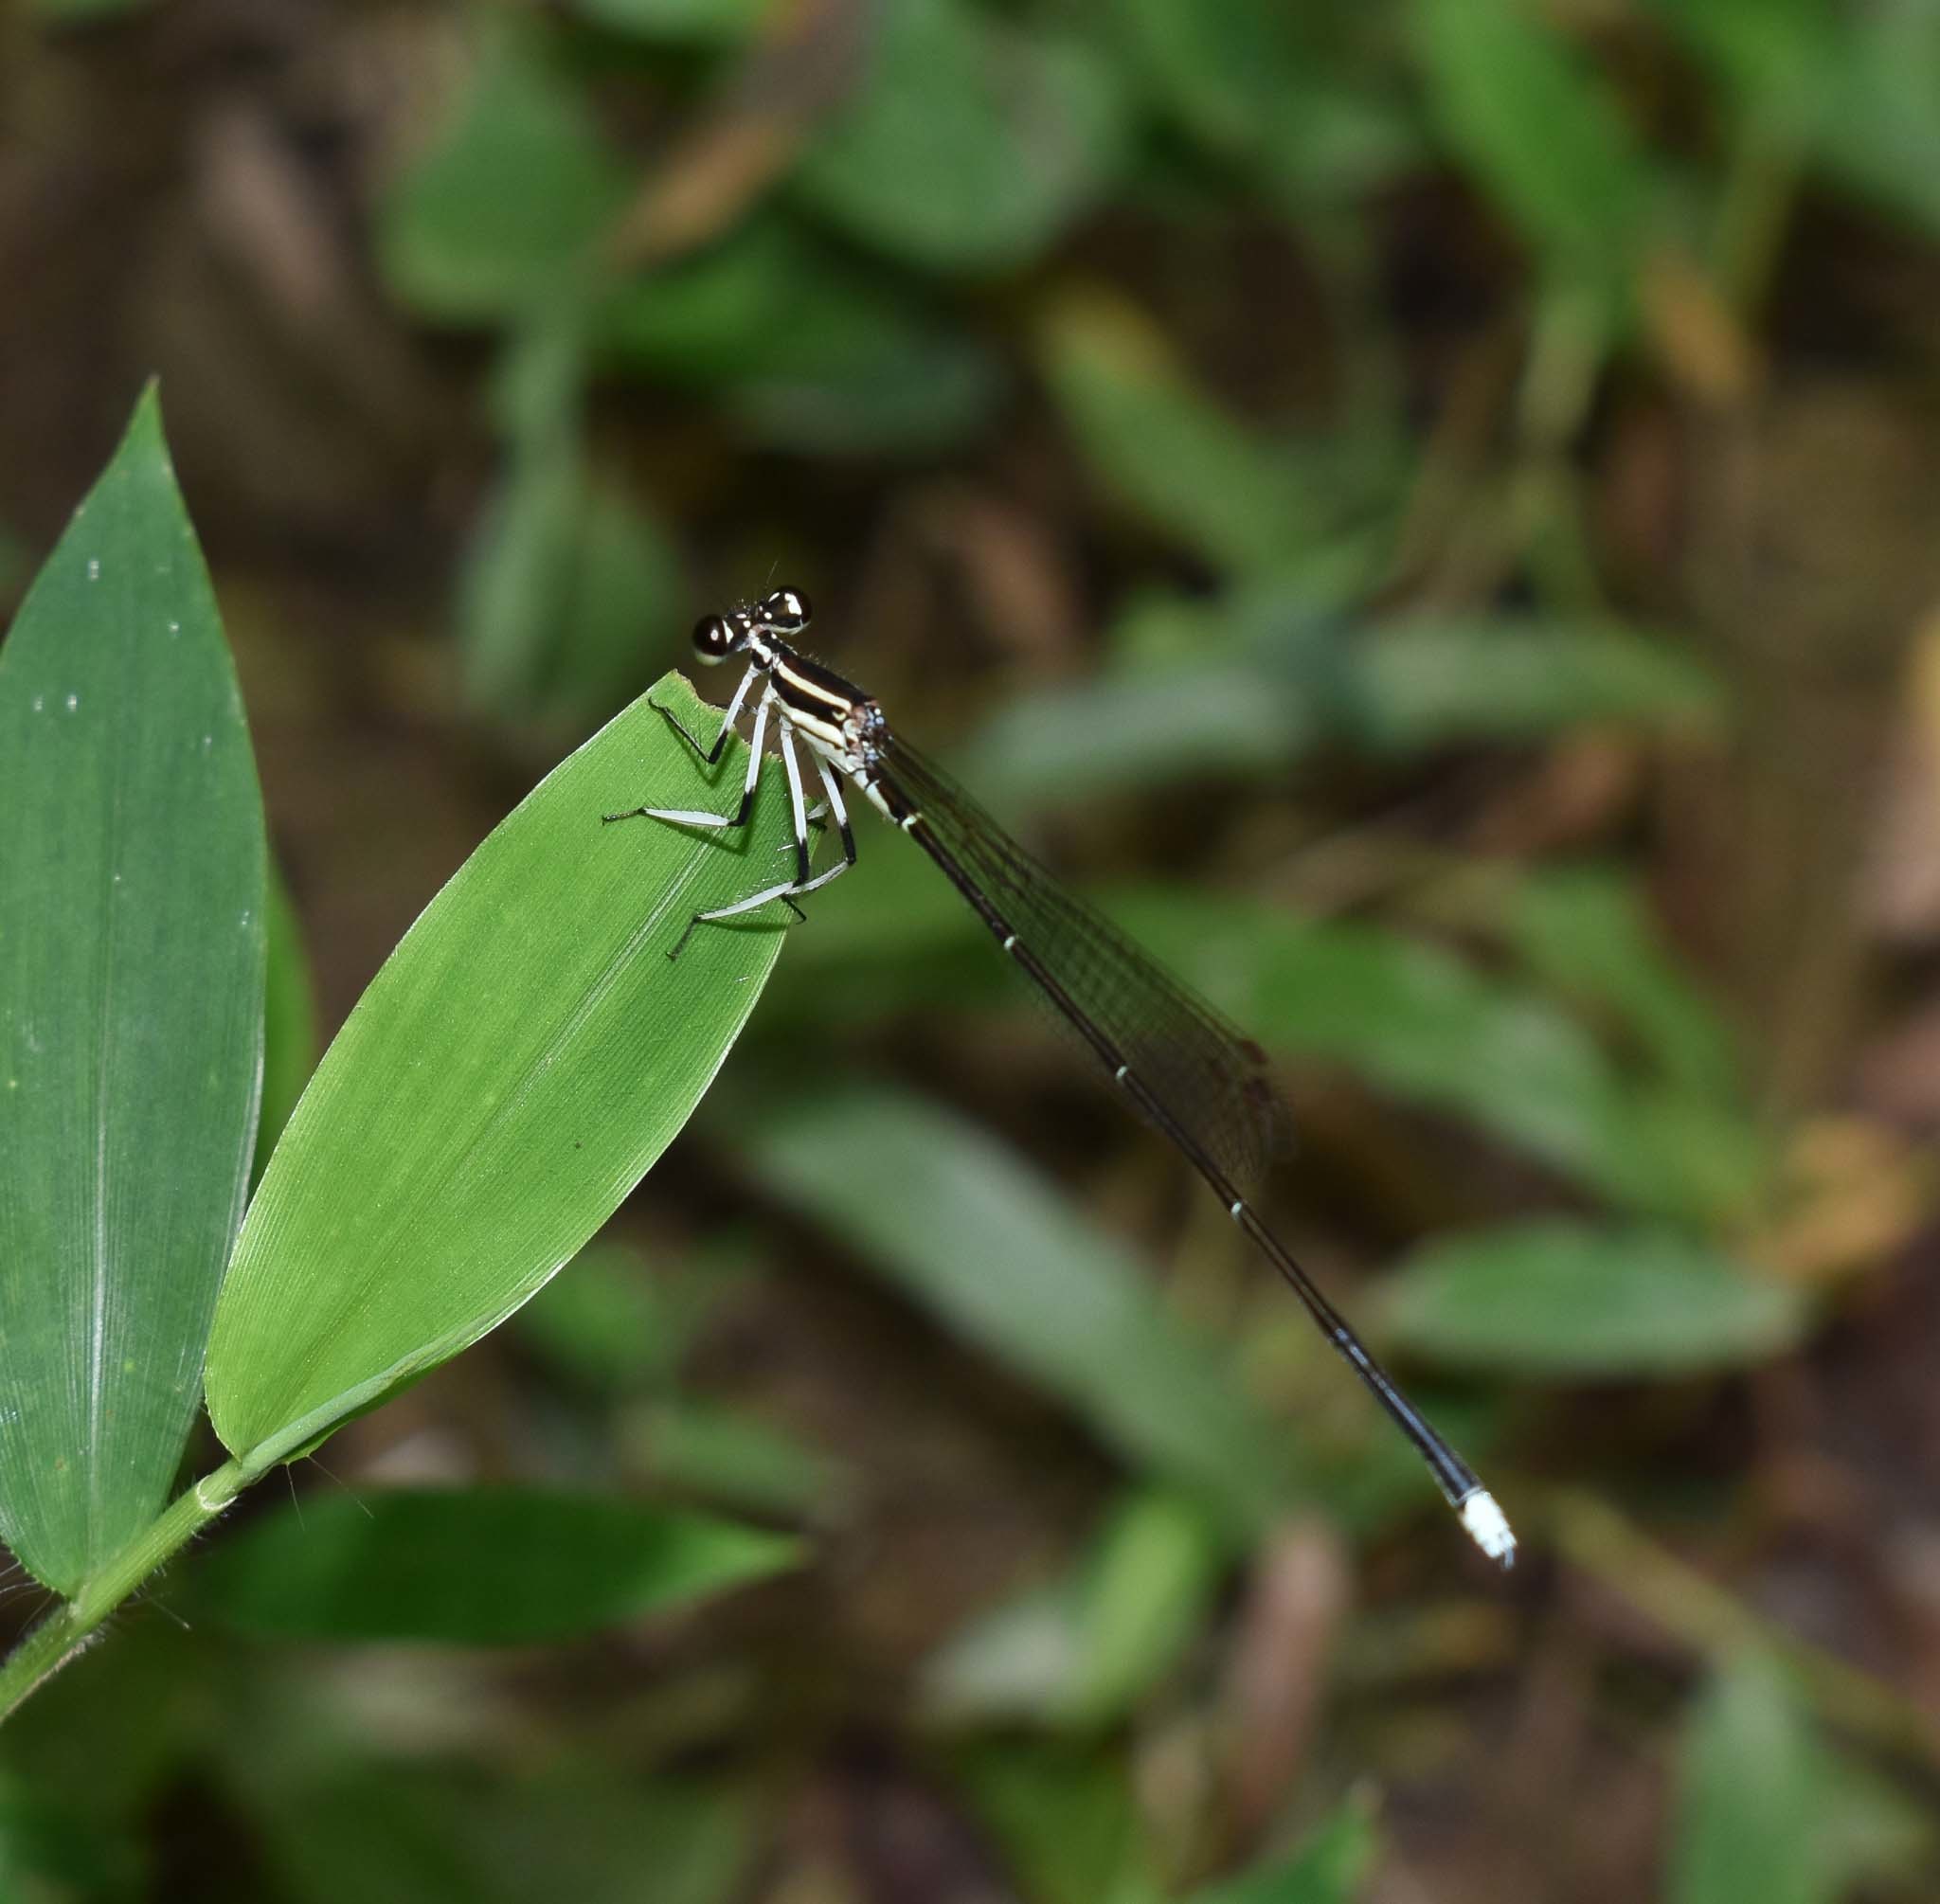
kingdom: Animalia
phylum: Arthropoda
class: Insecta
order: Odonata
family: Platycnemididae
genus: Pseudocopera
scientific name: Pseudocopera ciliata
